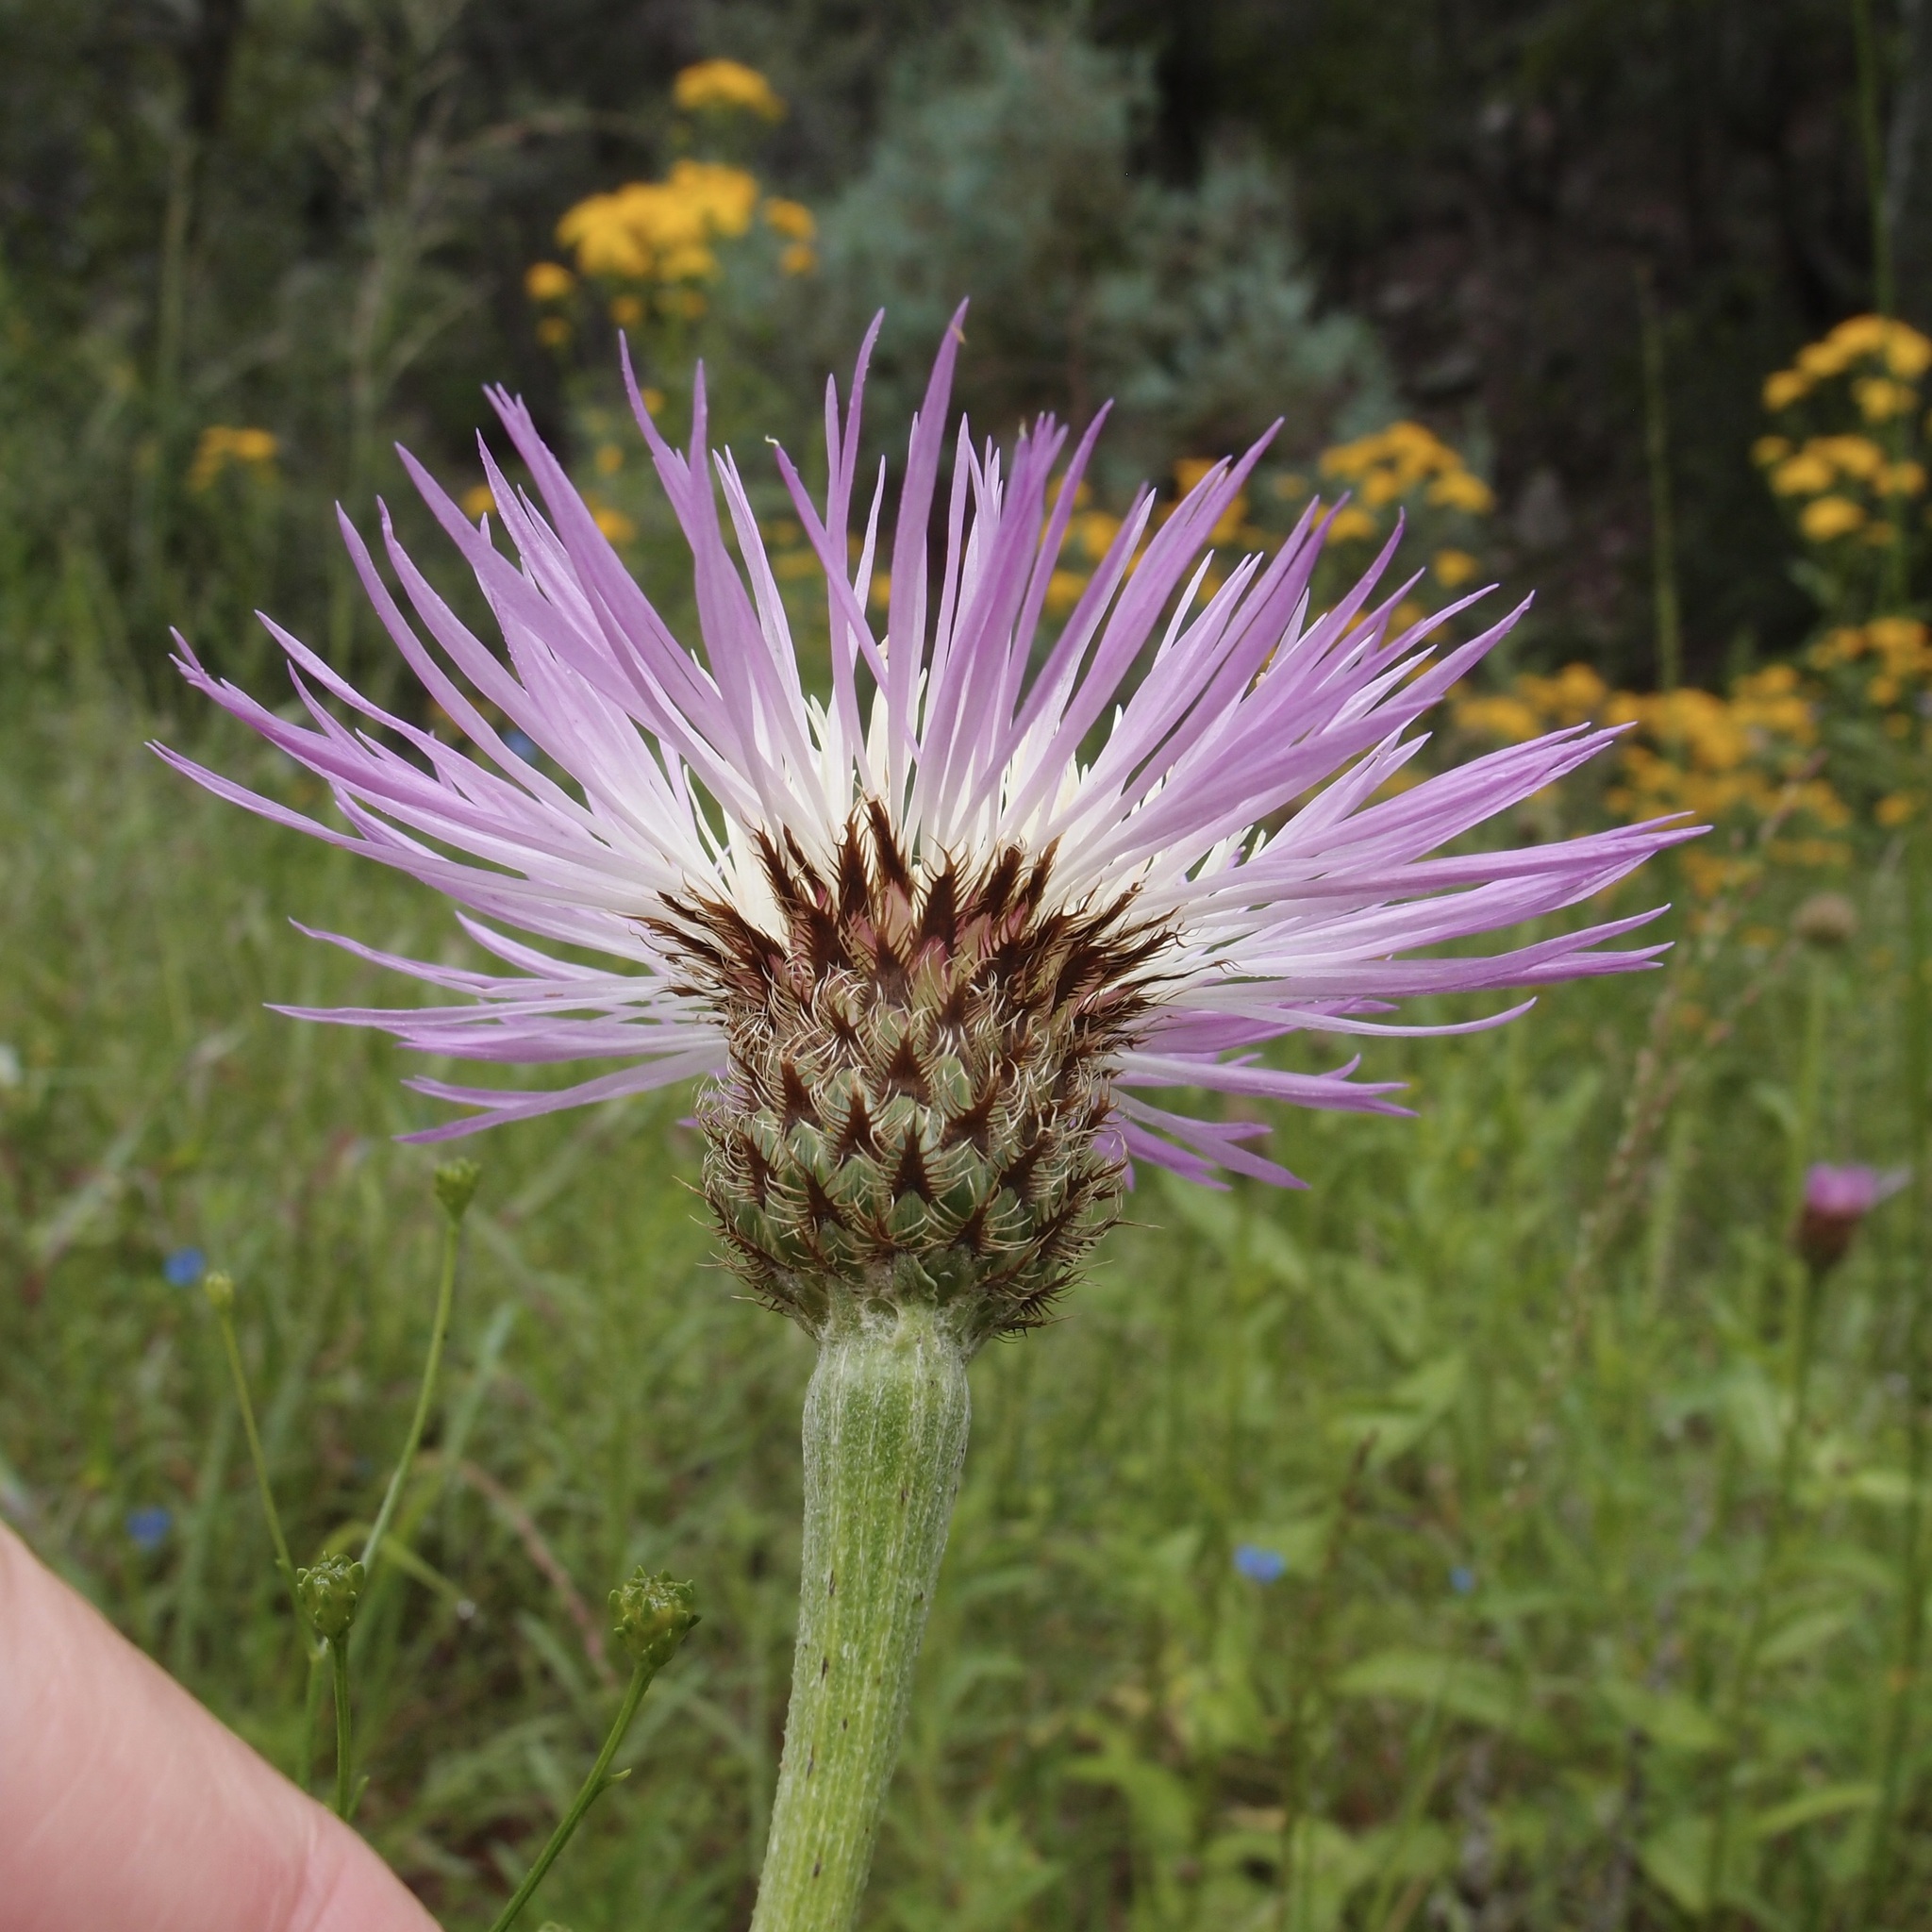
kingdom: Plantae
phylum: Tracheophyta
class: Magnoliopsida
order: Asterales
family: Asteraceae
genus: Plectocephalus
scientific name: Plectocephalus rothrockii
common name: Mexican basketflower
